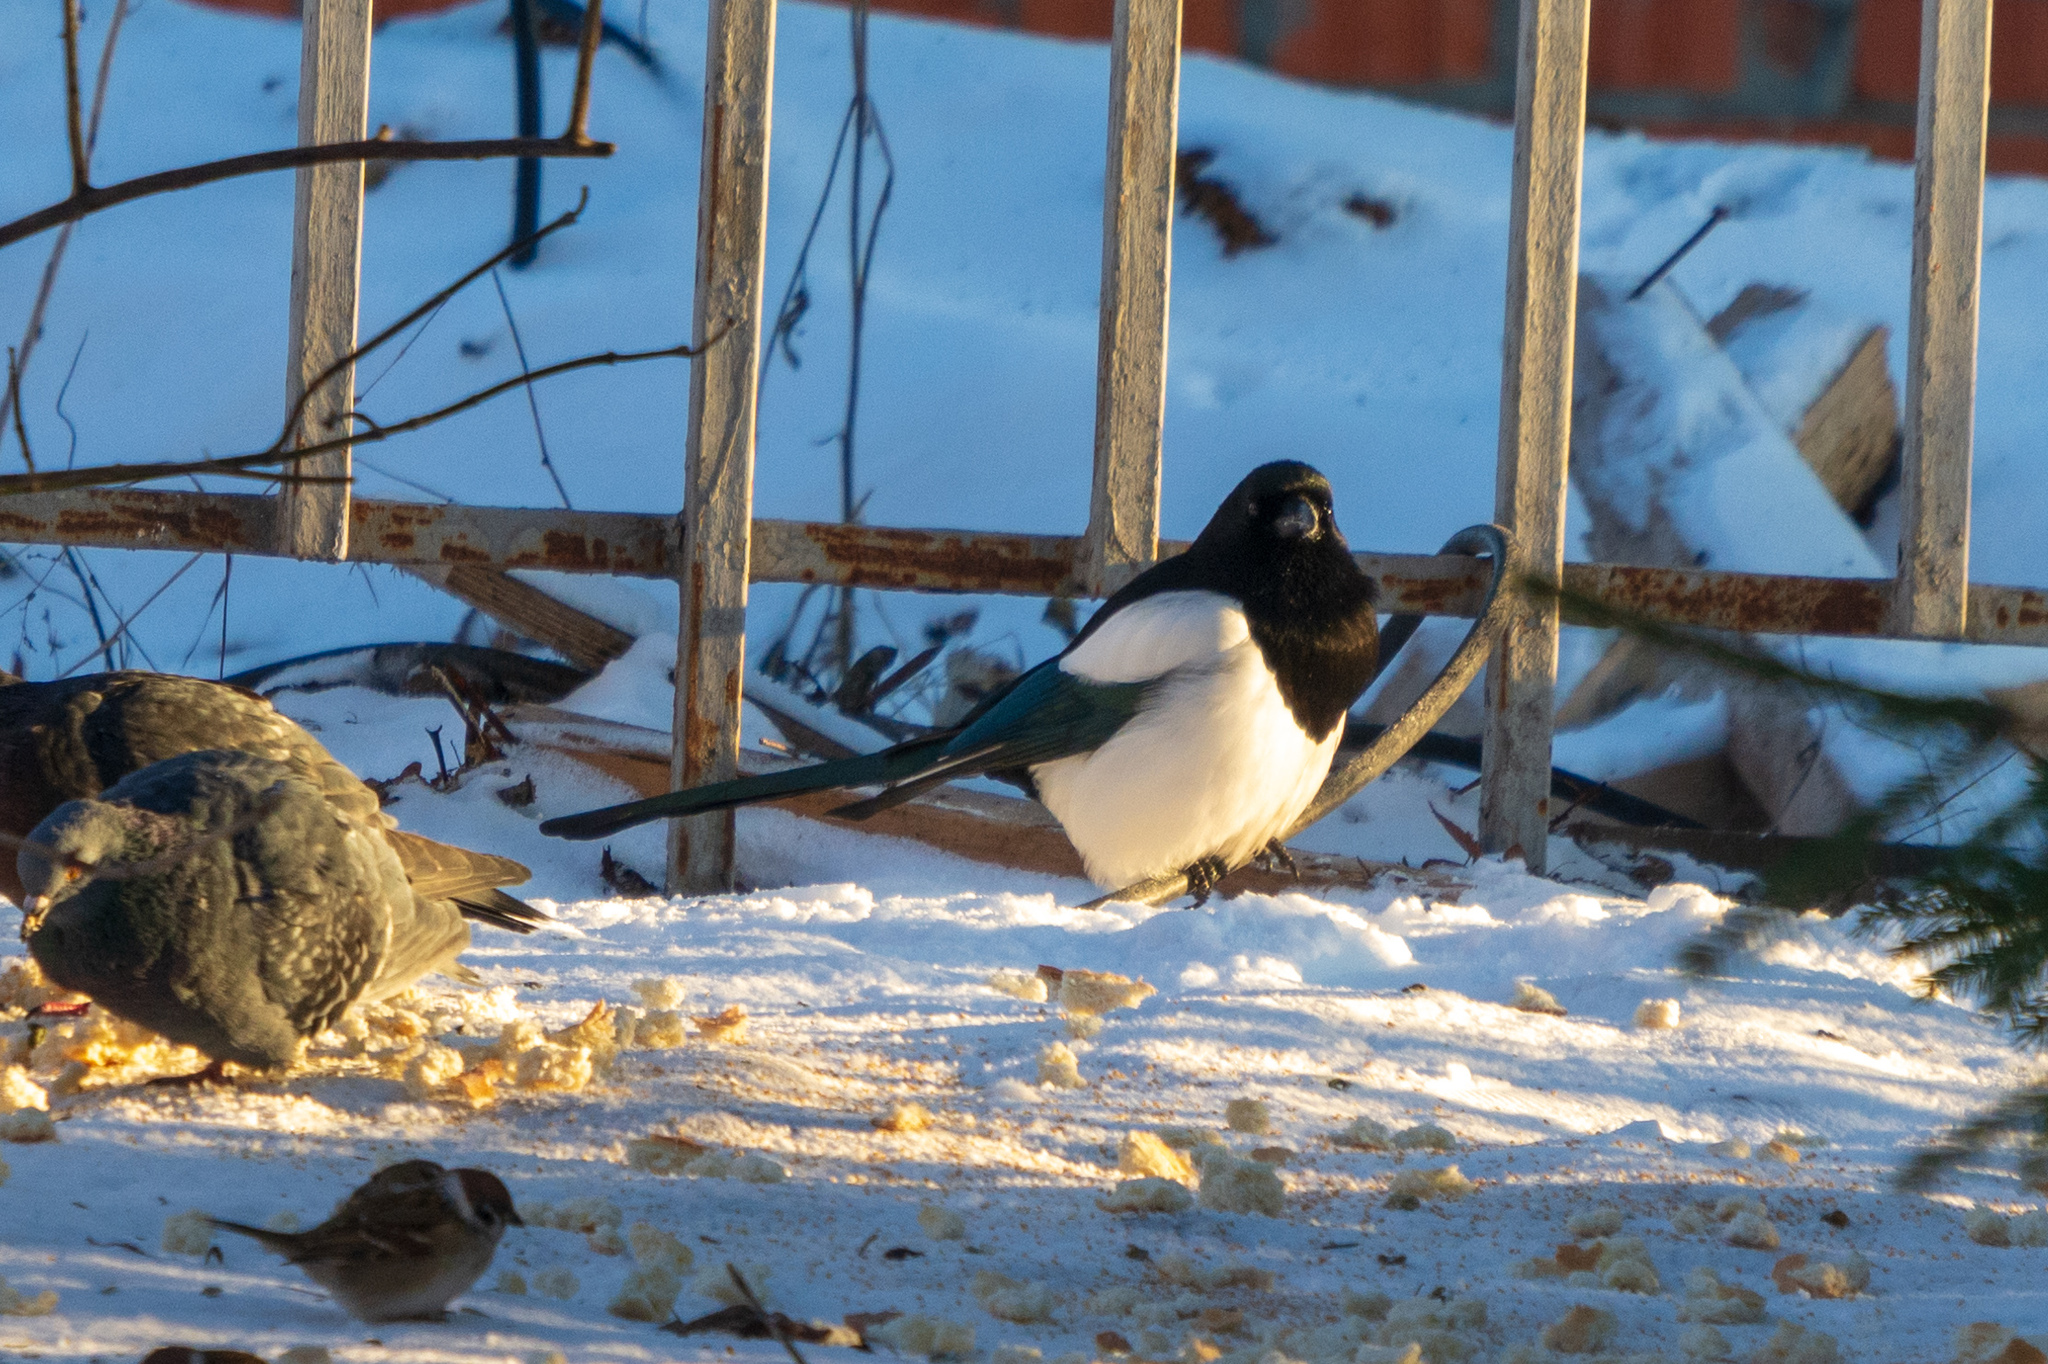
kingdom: Animalia
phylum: Chordata
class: Aves
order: Passeriformes
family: Corvidae
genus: Pica
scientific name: Pica pica
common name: Eurasian magpie
